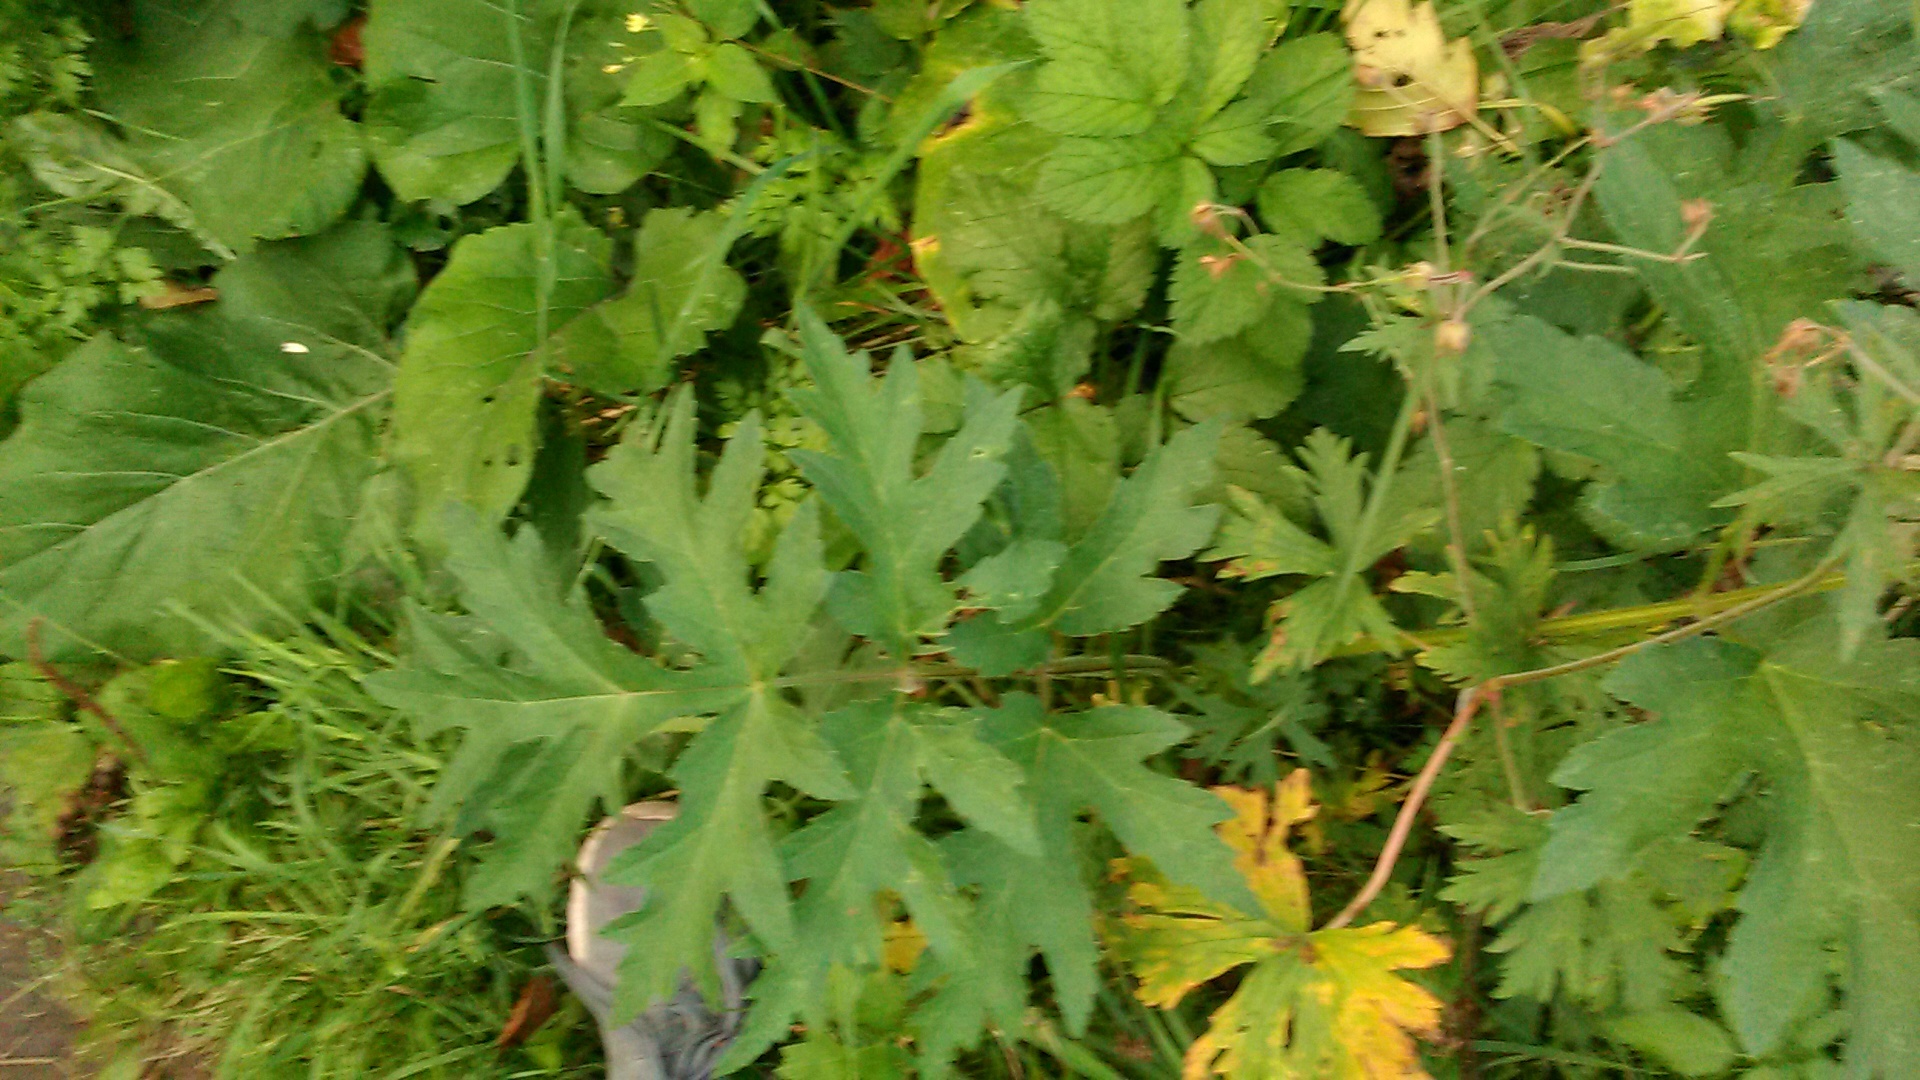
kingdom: Plantae
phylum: Tracheophyta
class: Magnoliopsida
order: Apiales
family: Apiaceae
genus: Heracleum
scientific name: Heracleum sphondylium
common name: Hogweed
